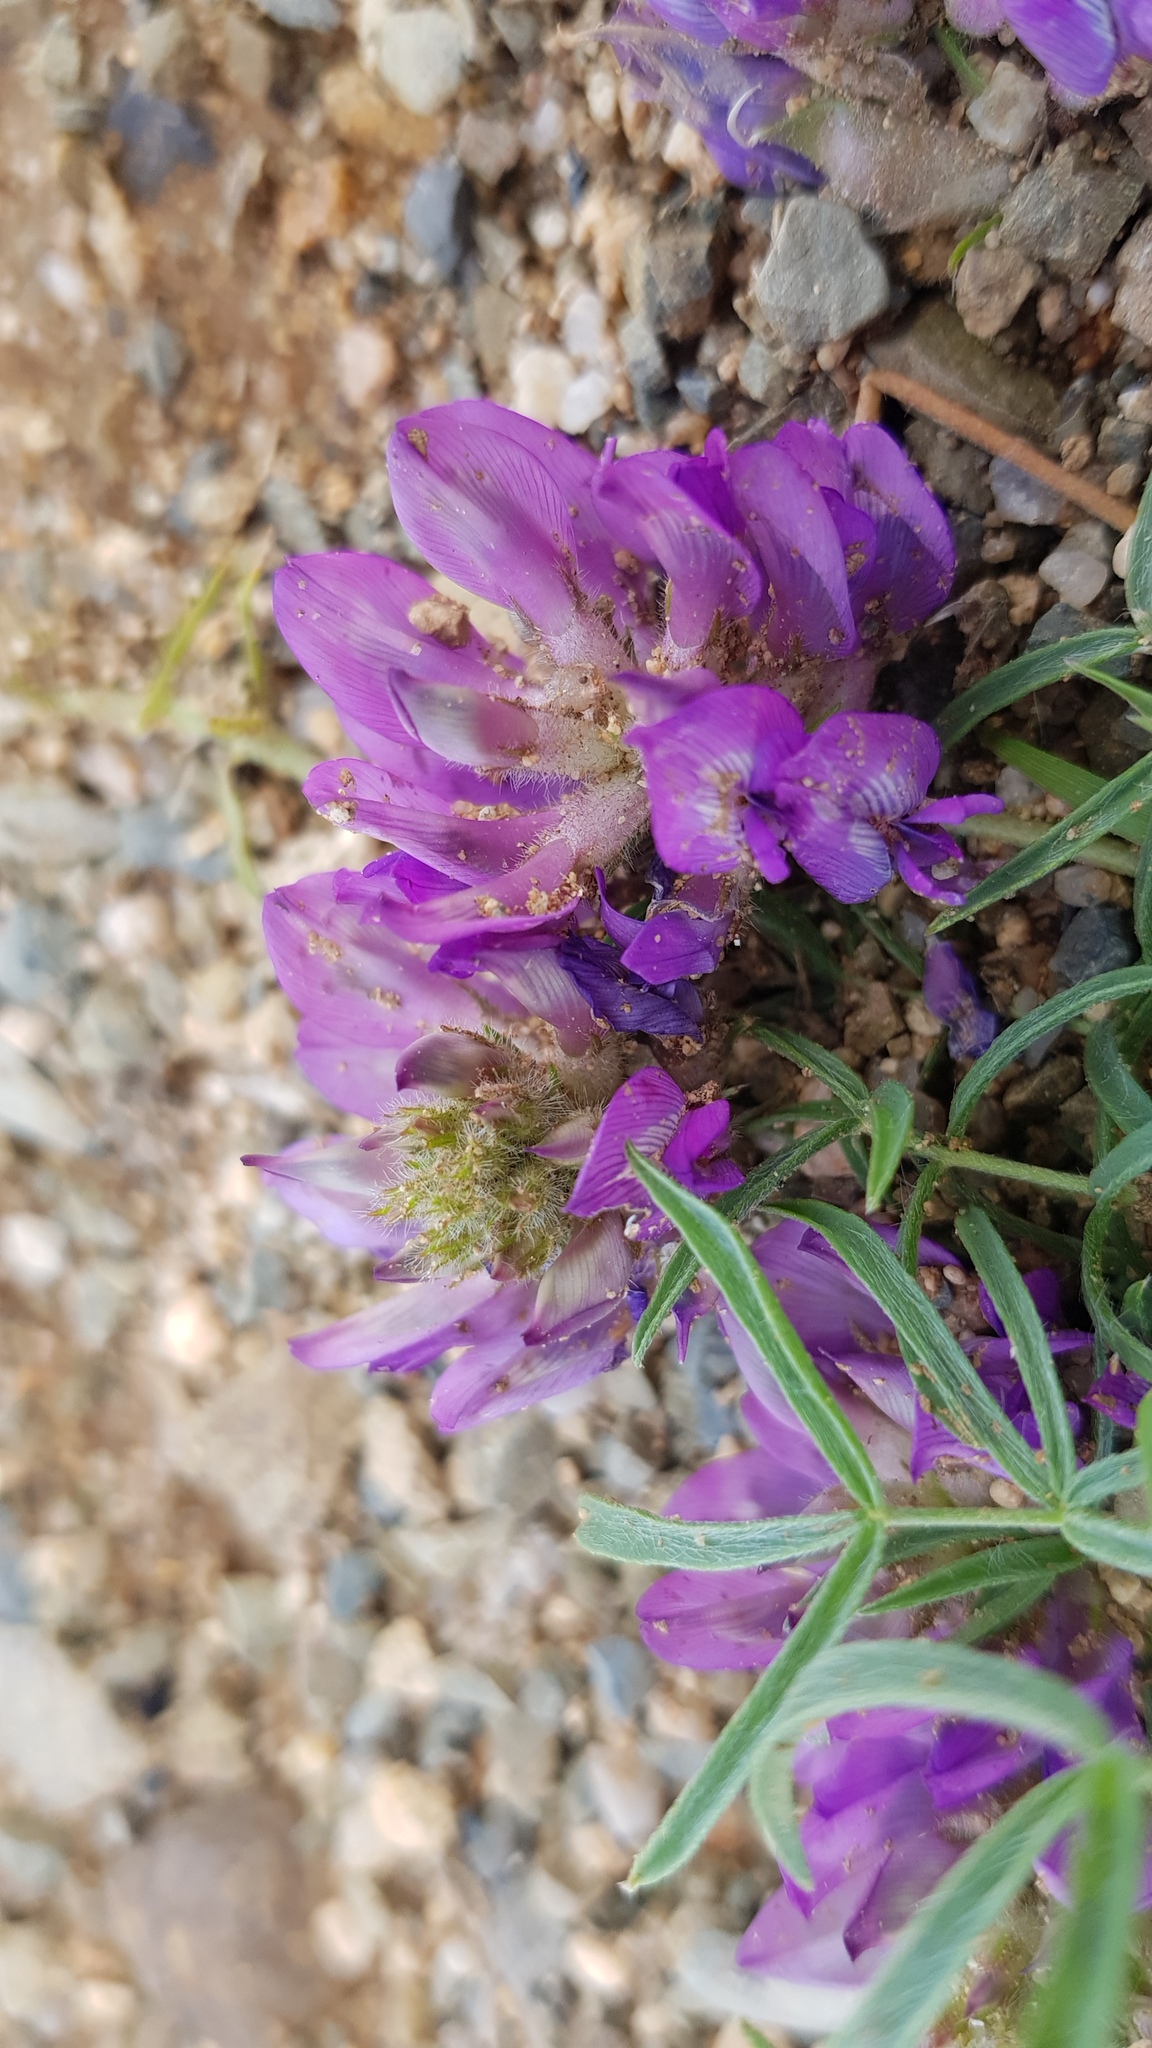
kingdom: Plantae
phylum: Tracheophyta
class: Magnoliopsida
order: Fabales
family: Fabaceae
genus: Oxytropis
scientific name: Oxytropis pumila
